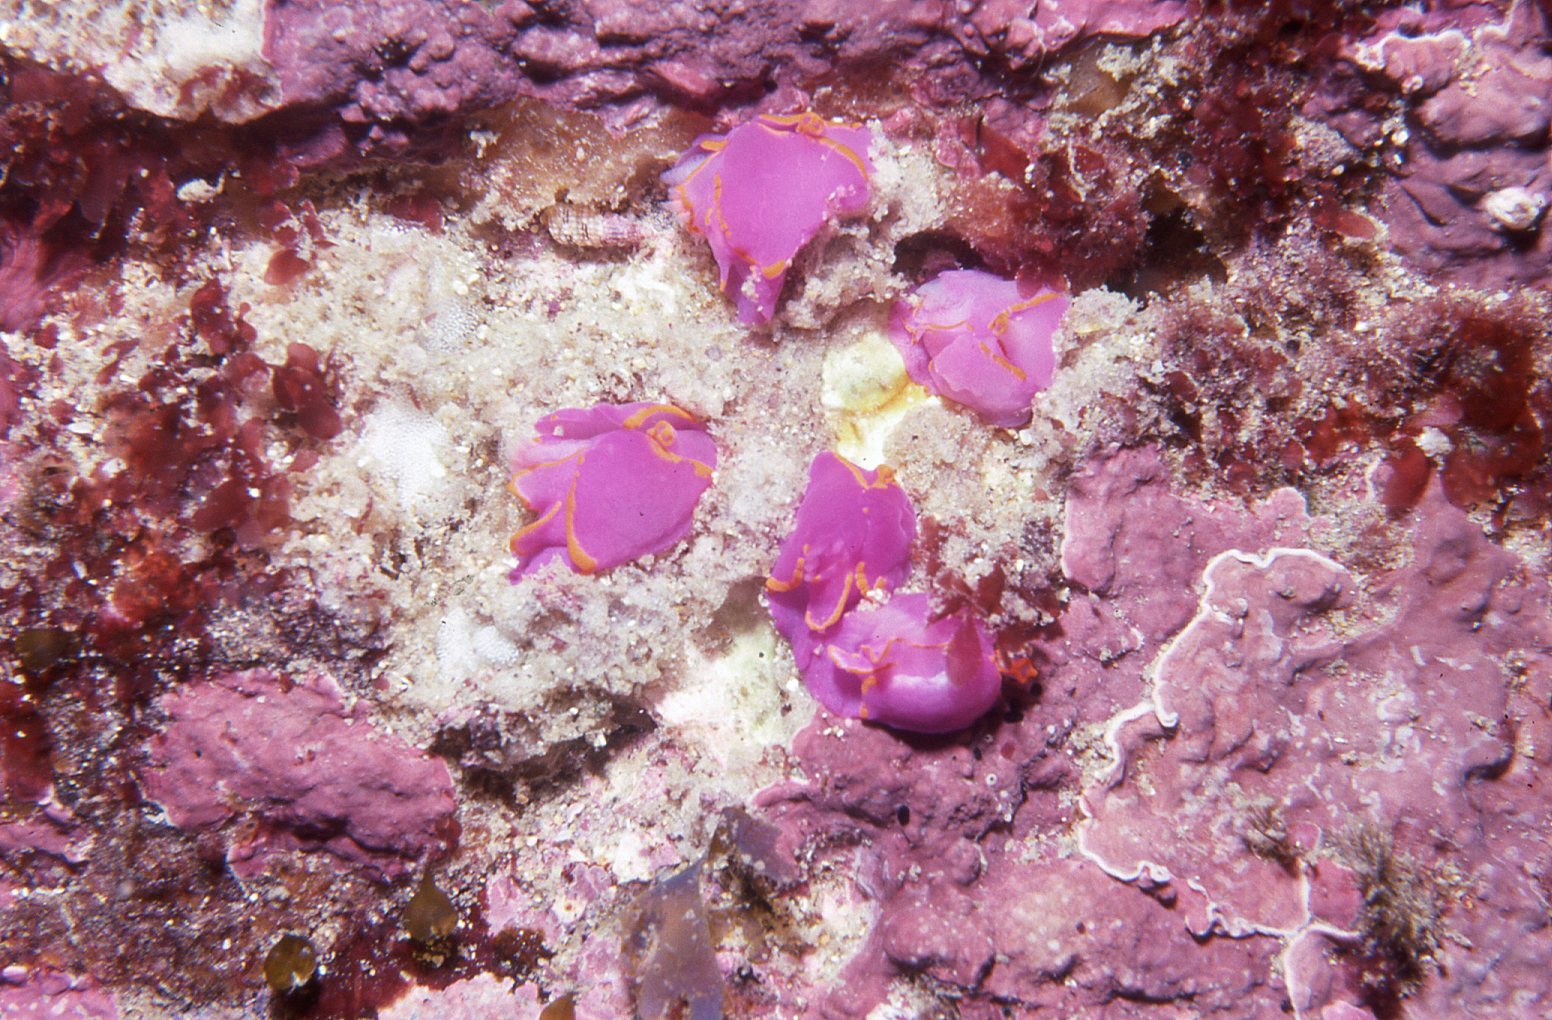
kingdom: Animalia
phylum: Mollusca
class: Gastropoda
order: Cephalaspidea
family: Gastropteridae
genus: Sagaminopteron
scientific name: Sagaminopteron ornatum
